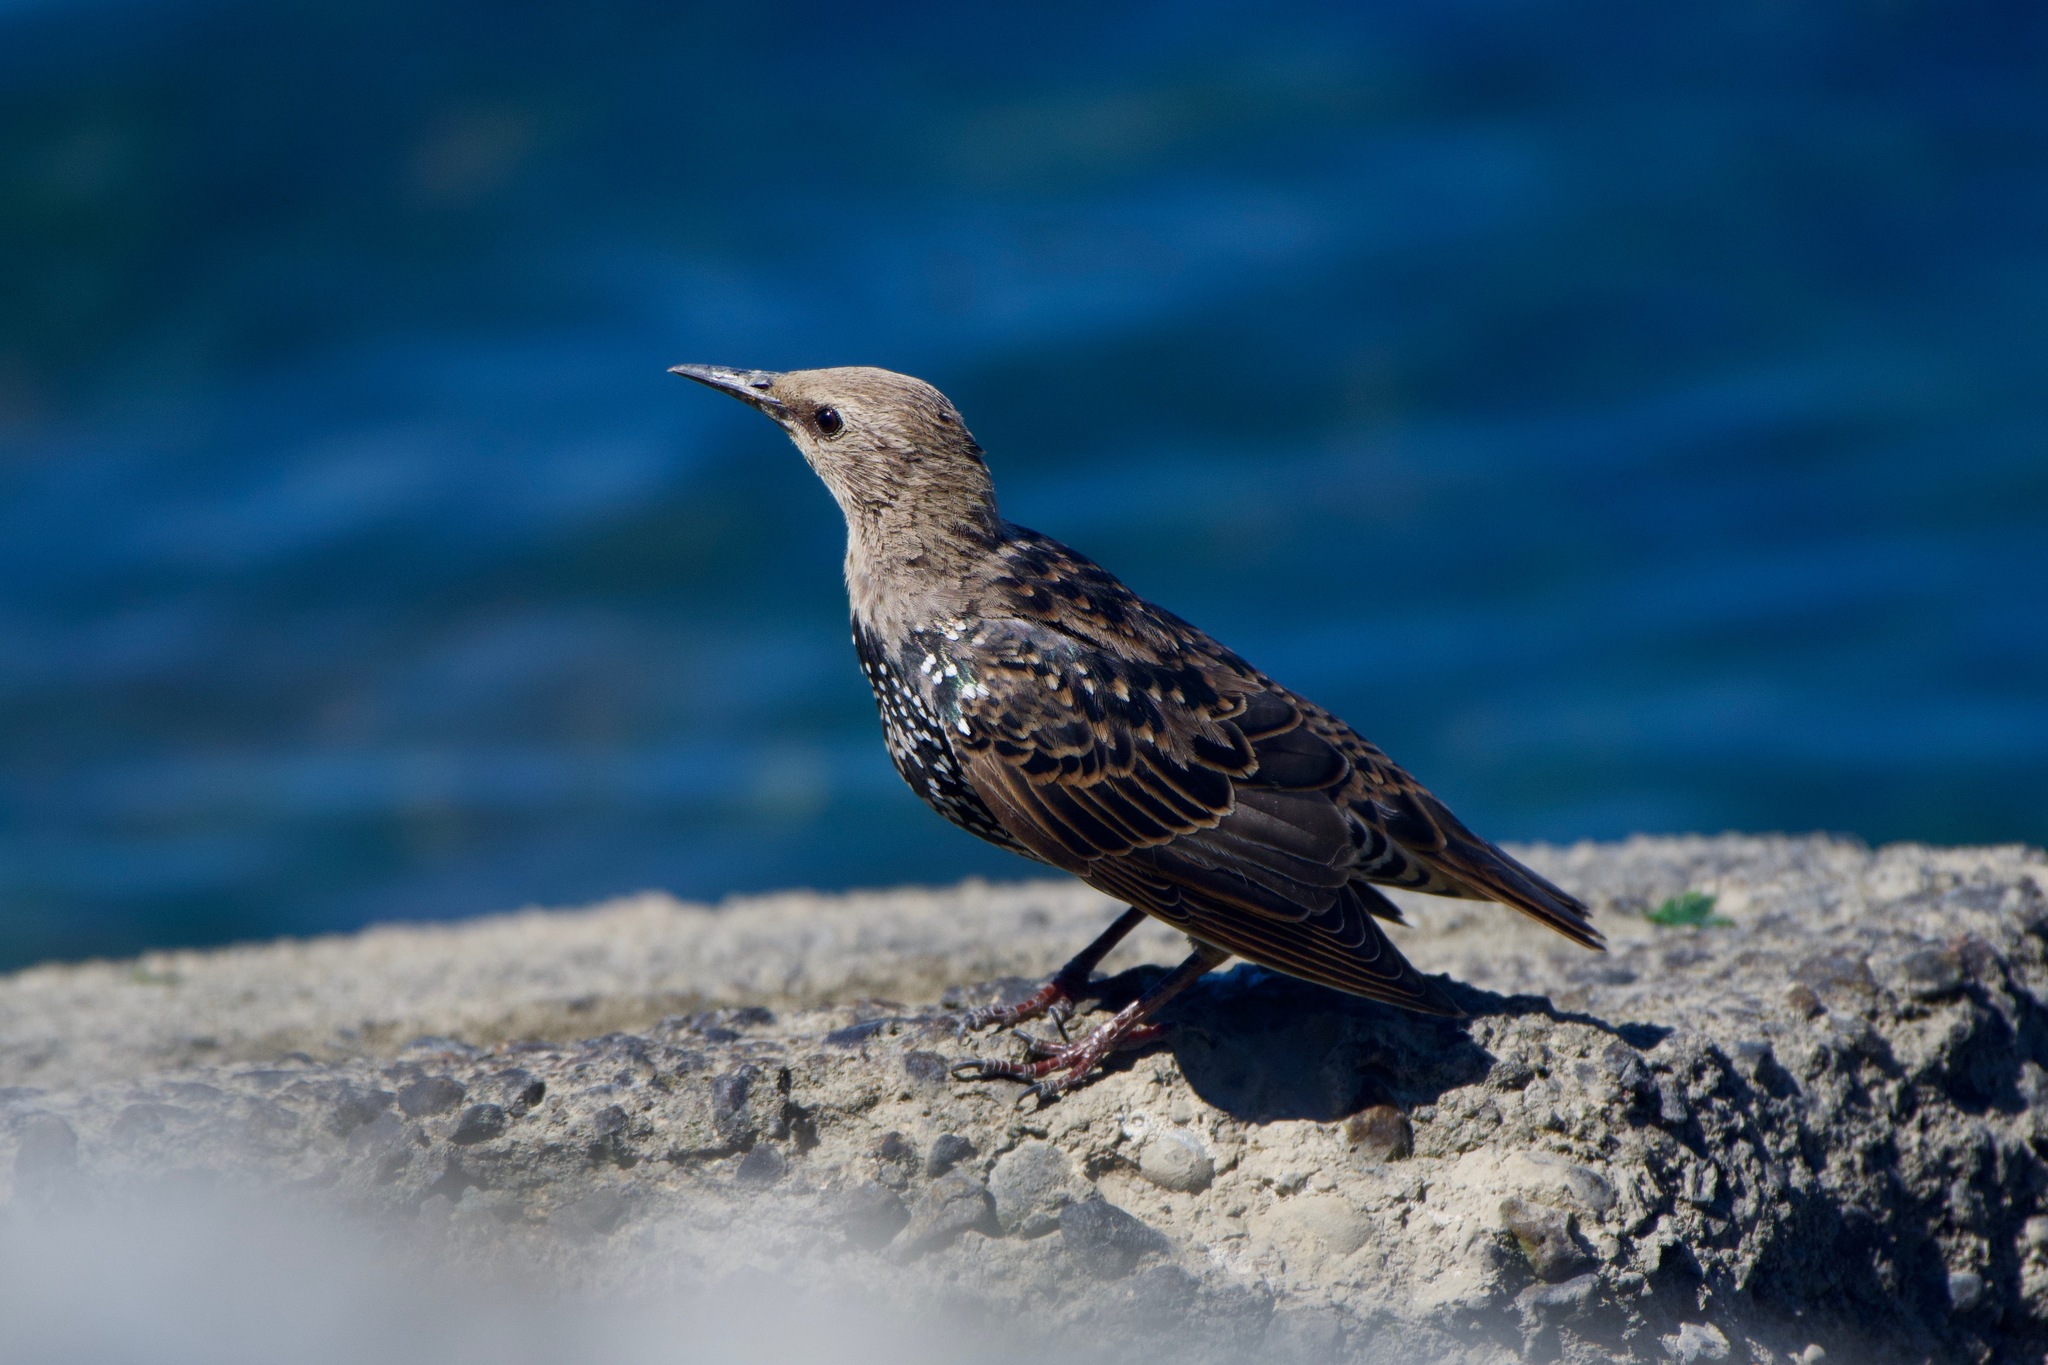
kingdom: Animalia
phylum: Chordata
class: Aves
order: Passeriformes
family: Sturnidae
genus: Sturnus
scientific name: Sturnus vulgaris
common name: Common starling
